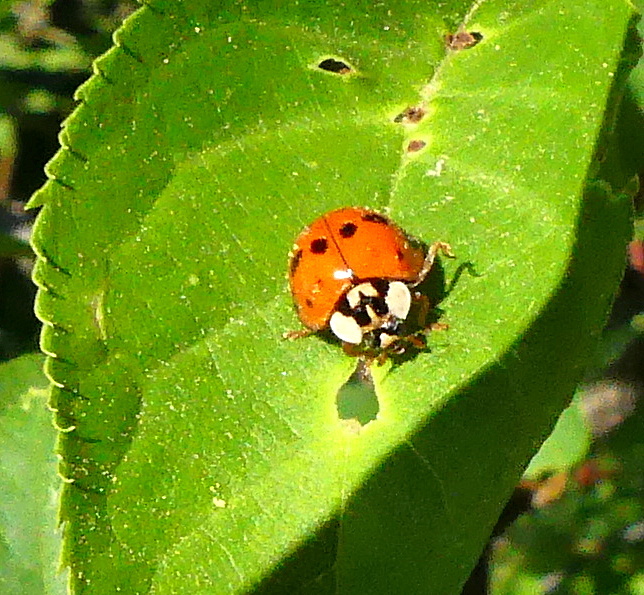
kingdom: Animalia
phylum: Arthropoda
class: Insecta
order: Coleoptera
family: Coccinellidae
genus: Harmonia
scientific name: Harmonia axyridis
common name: Harlequin ladybird
